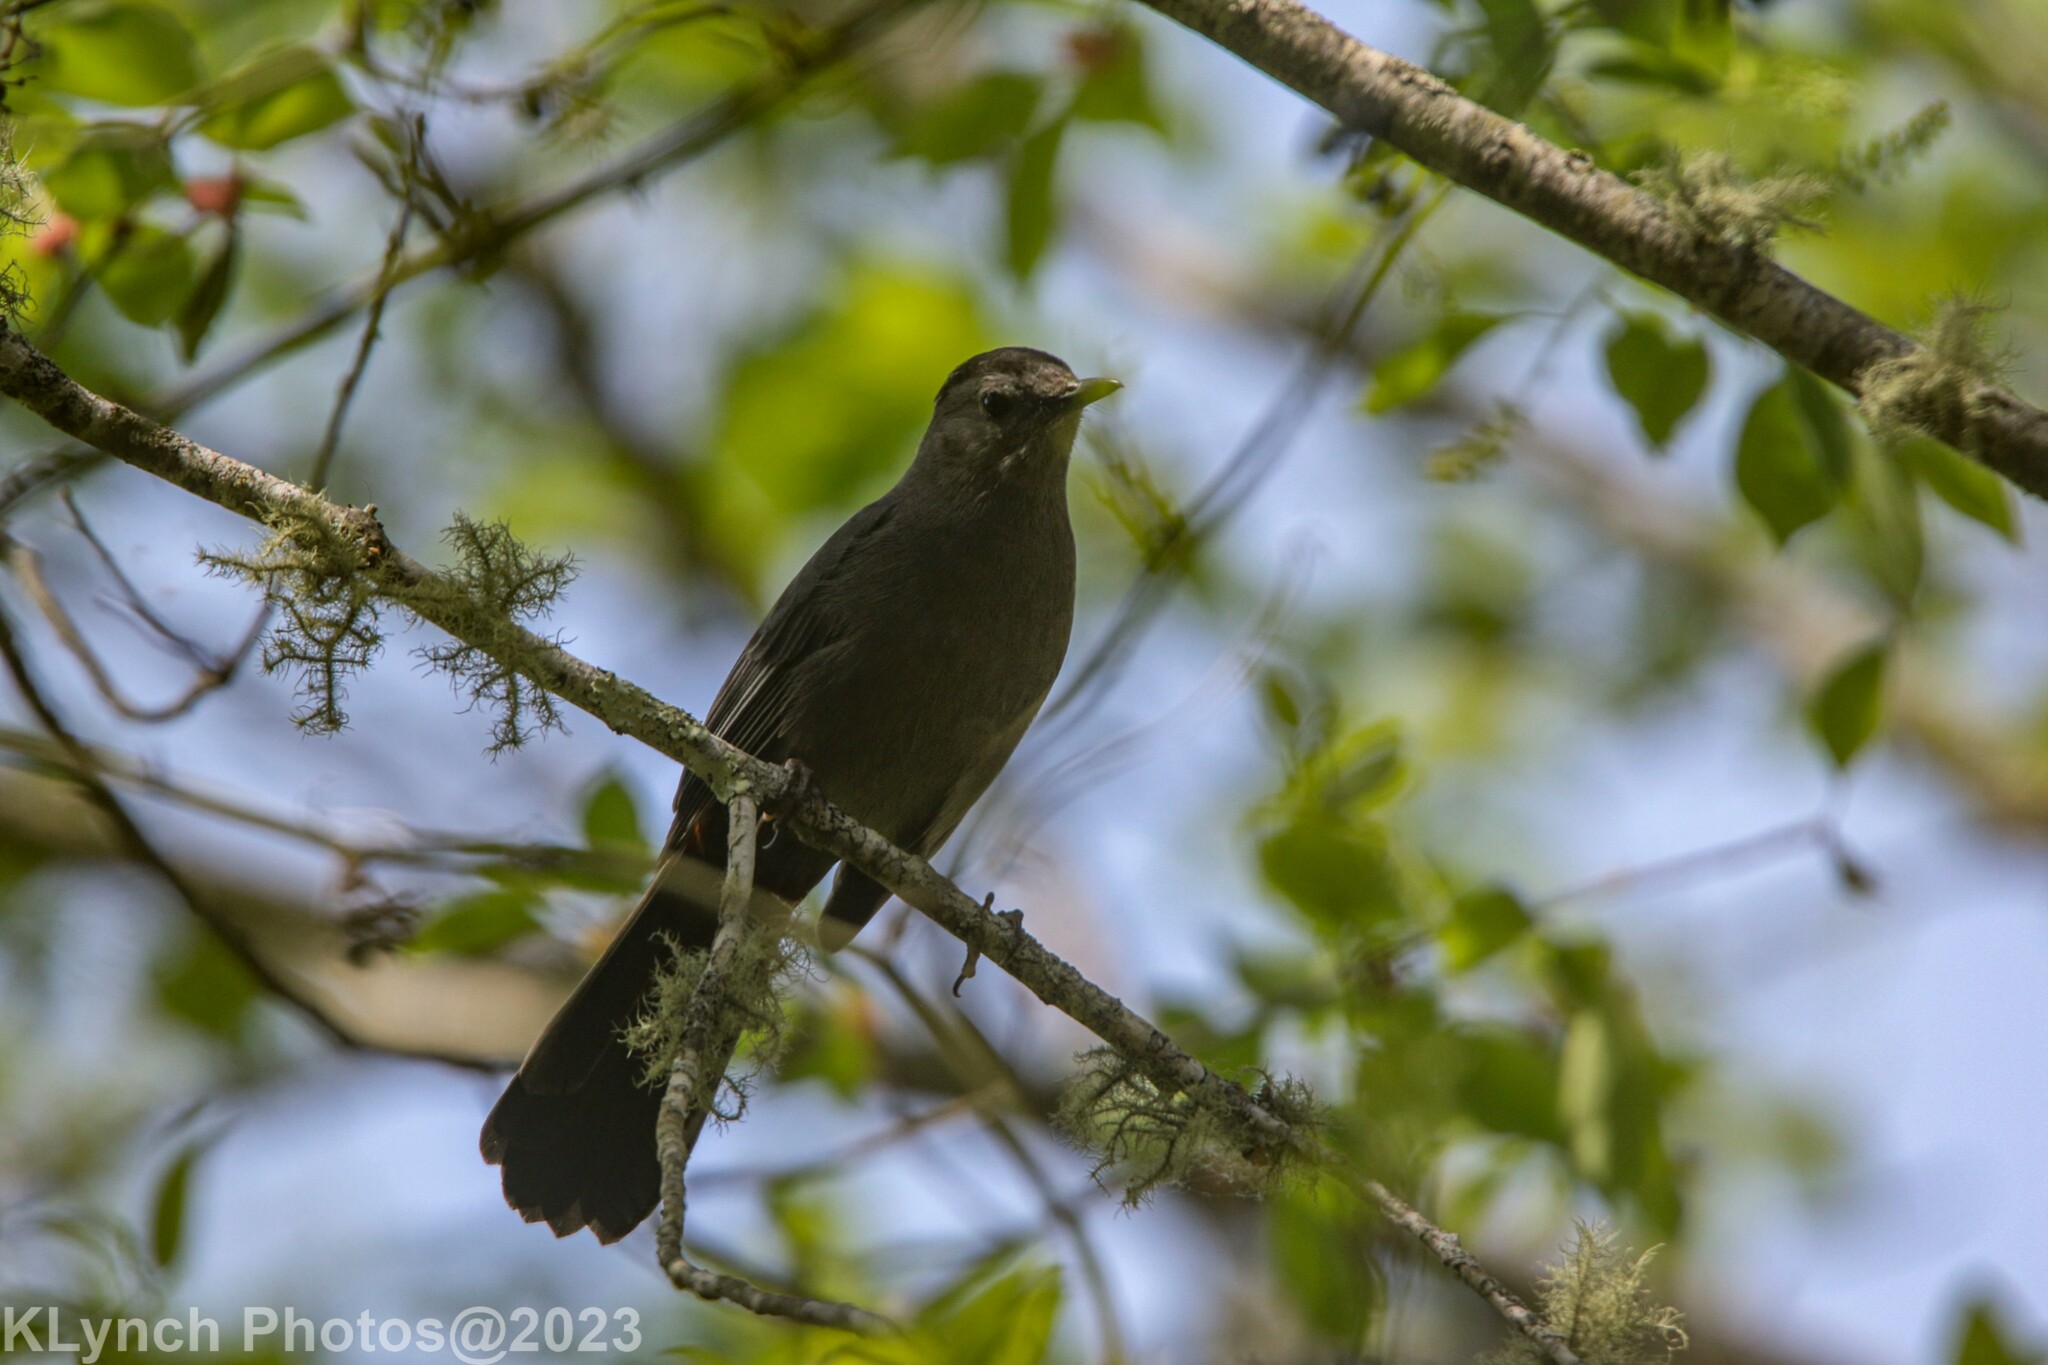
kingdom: Animalia
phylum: Chordata
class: Aves
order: Passeriformes
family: Mimidae
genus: Dumetella
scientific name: Dumetella carolinensis
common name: Gray catbird
